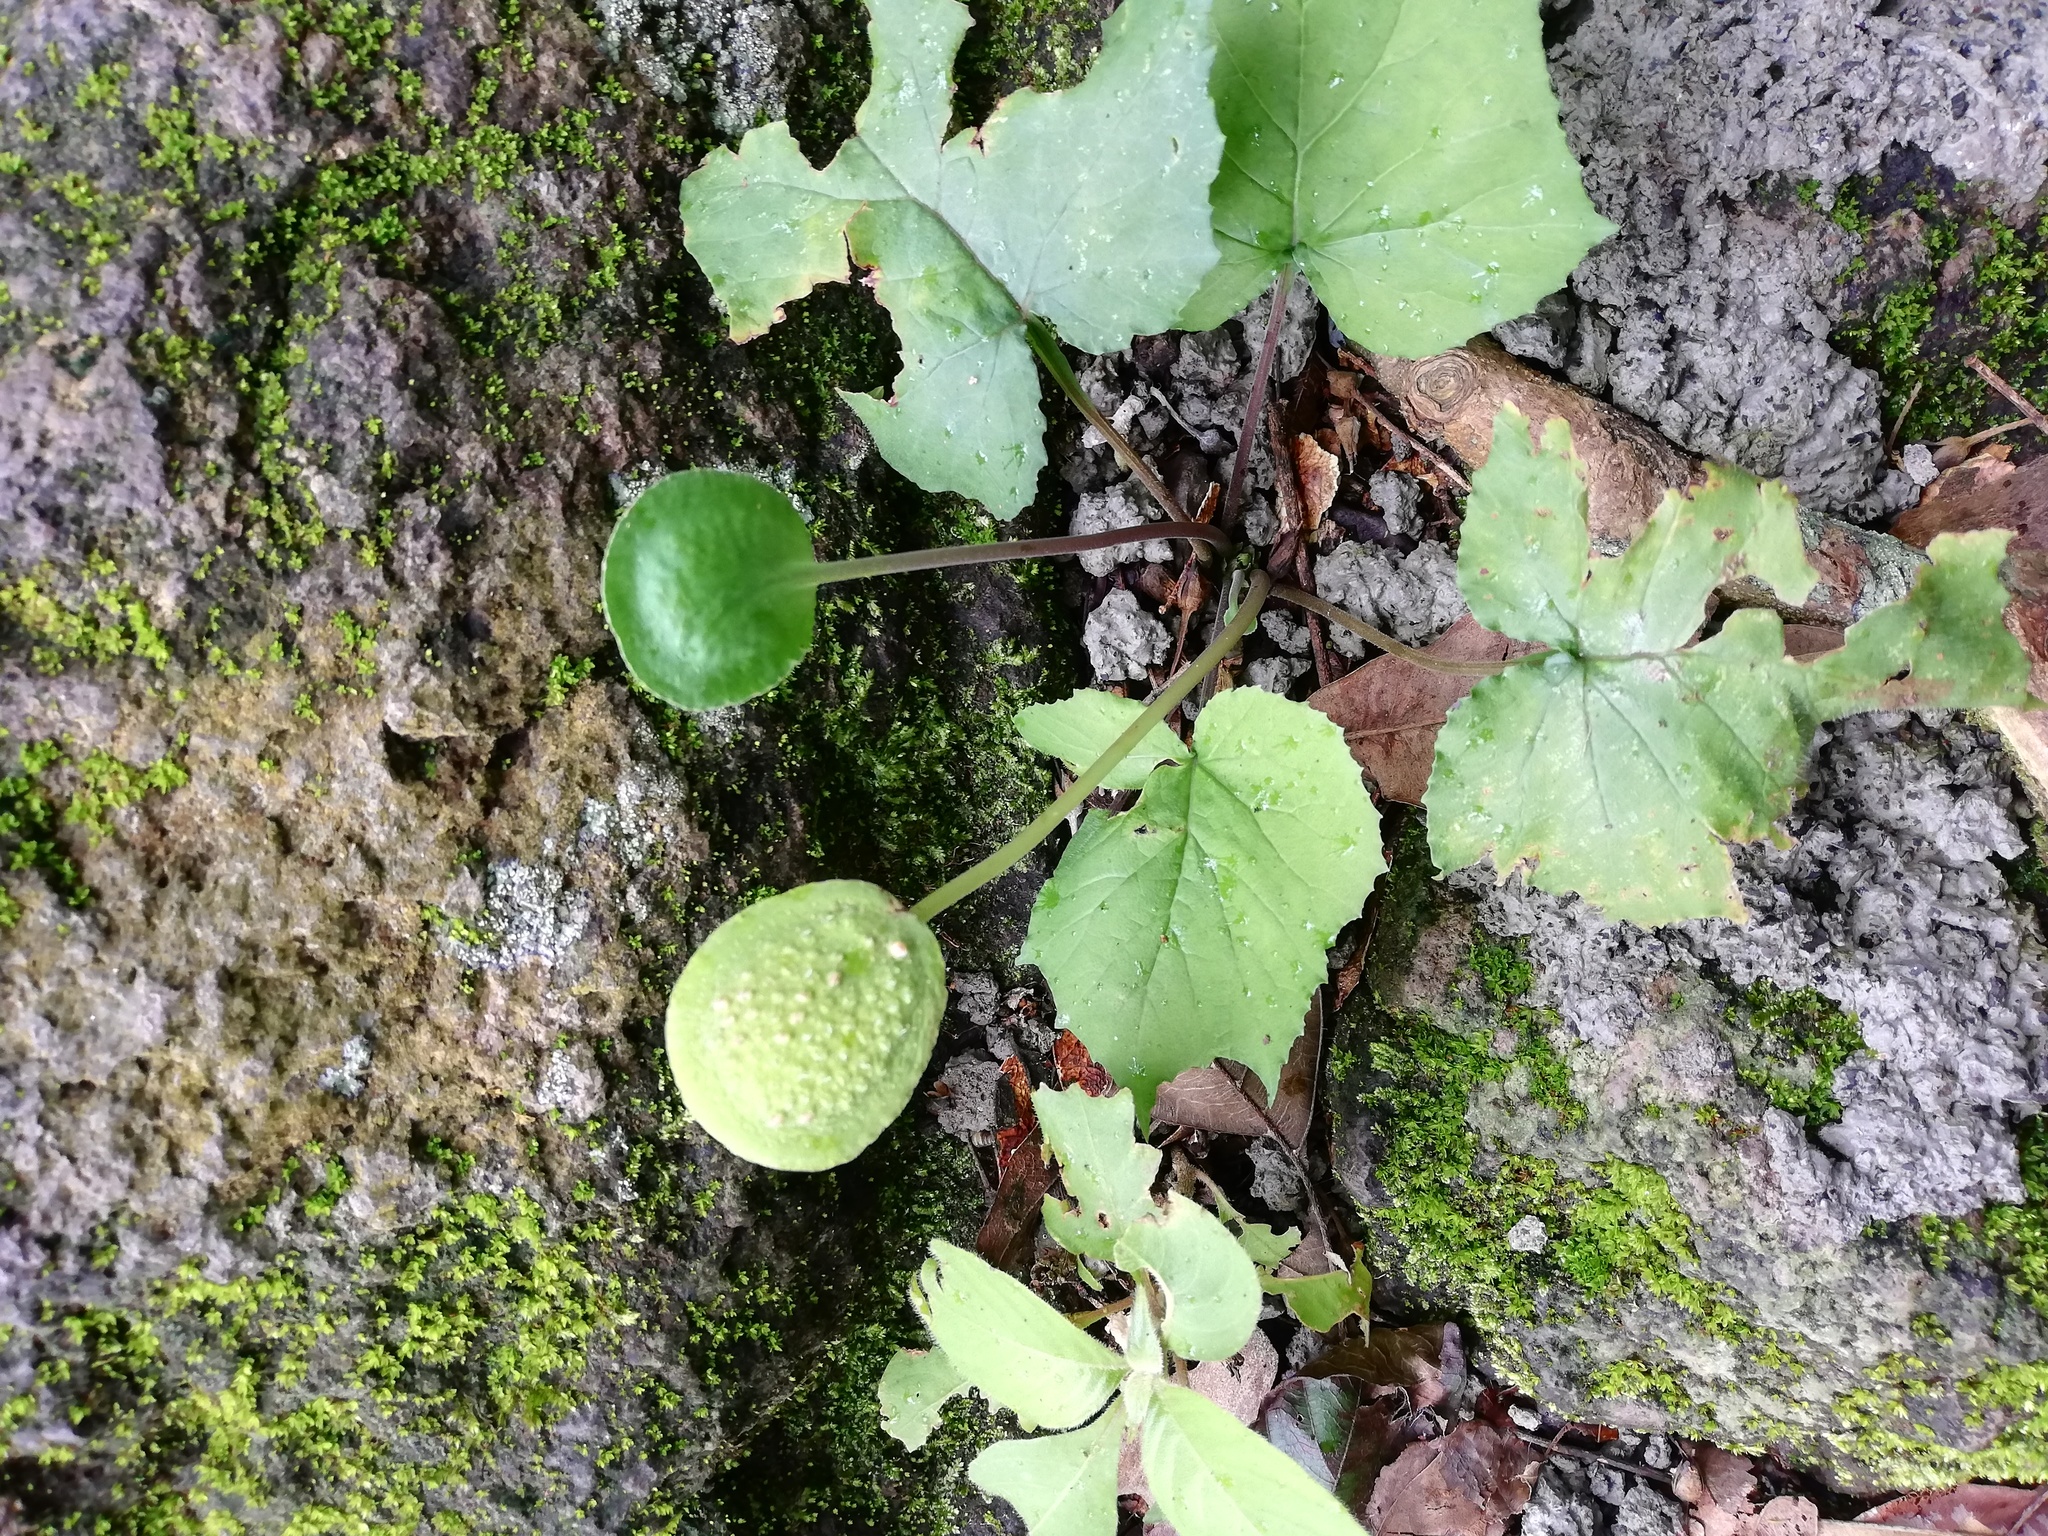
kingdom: Plantae
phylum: Tracheophyta
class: Magnoliopsida
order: Rosales
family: Moraceae
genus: Dorstenia
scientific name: Dorstenia drakena
